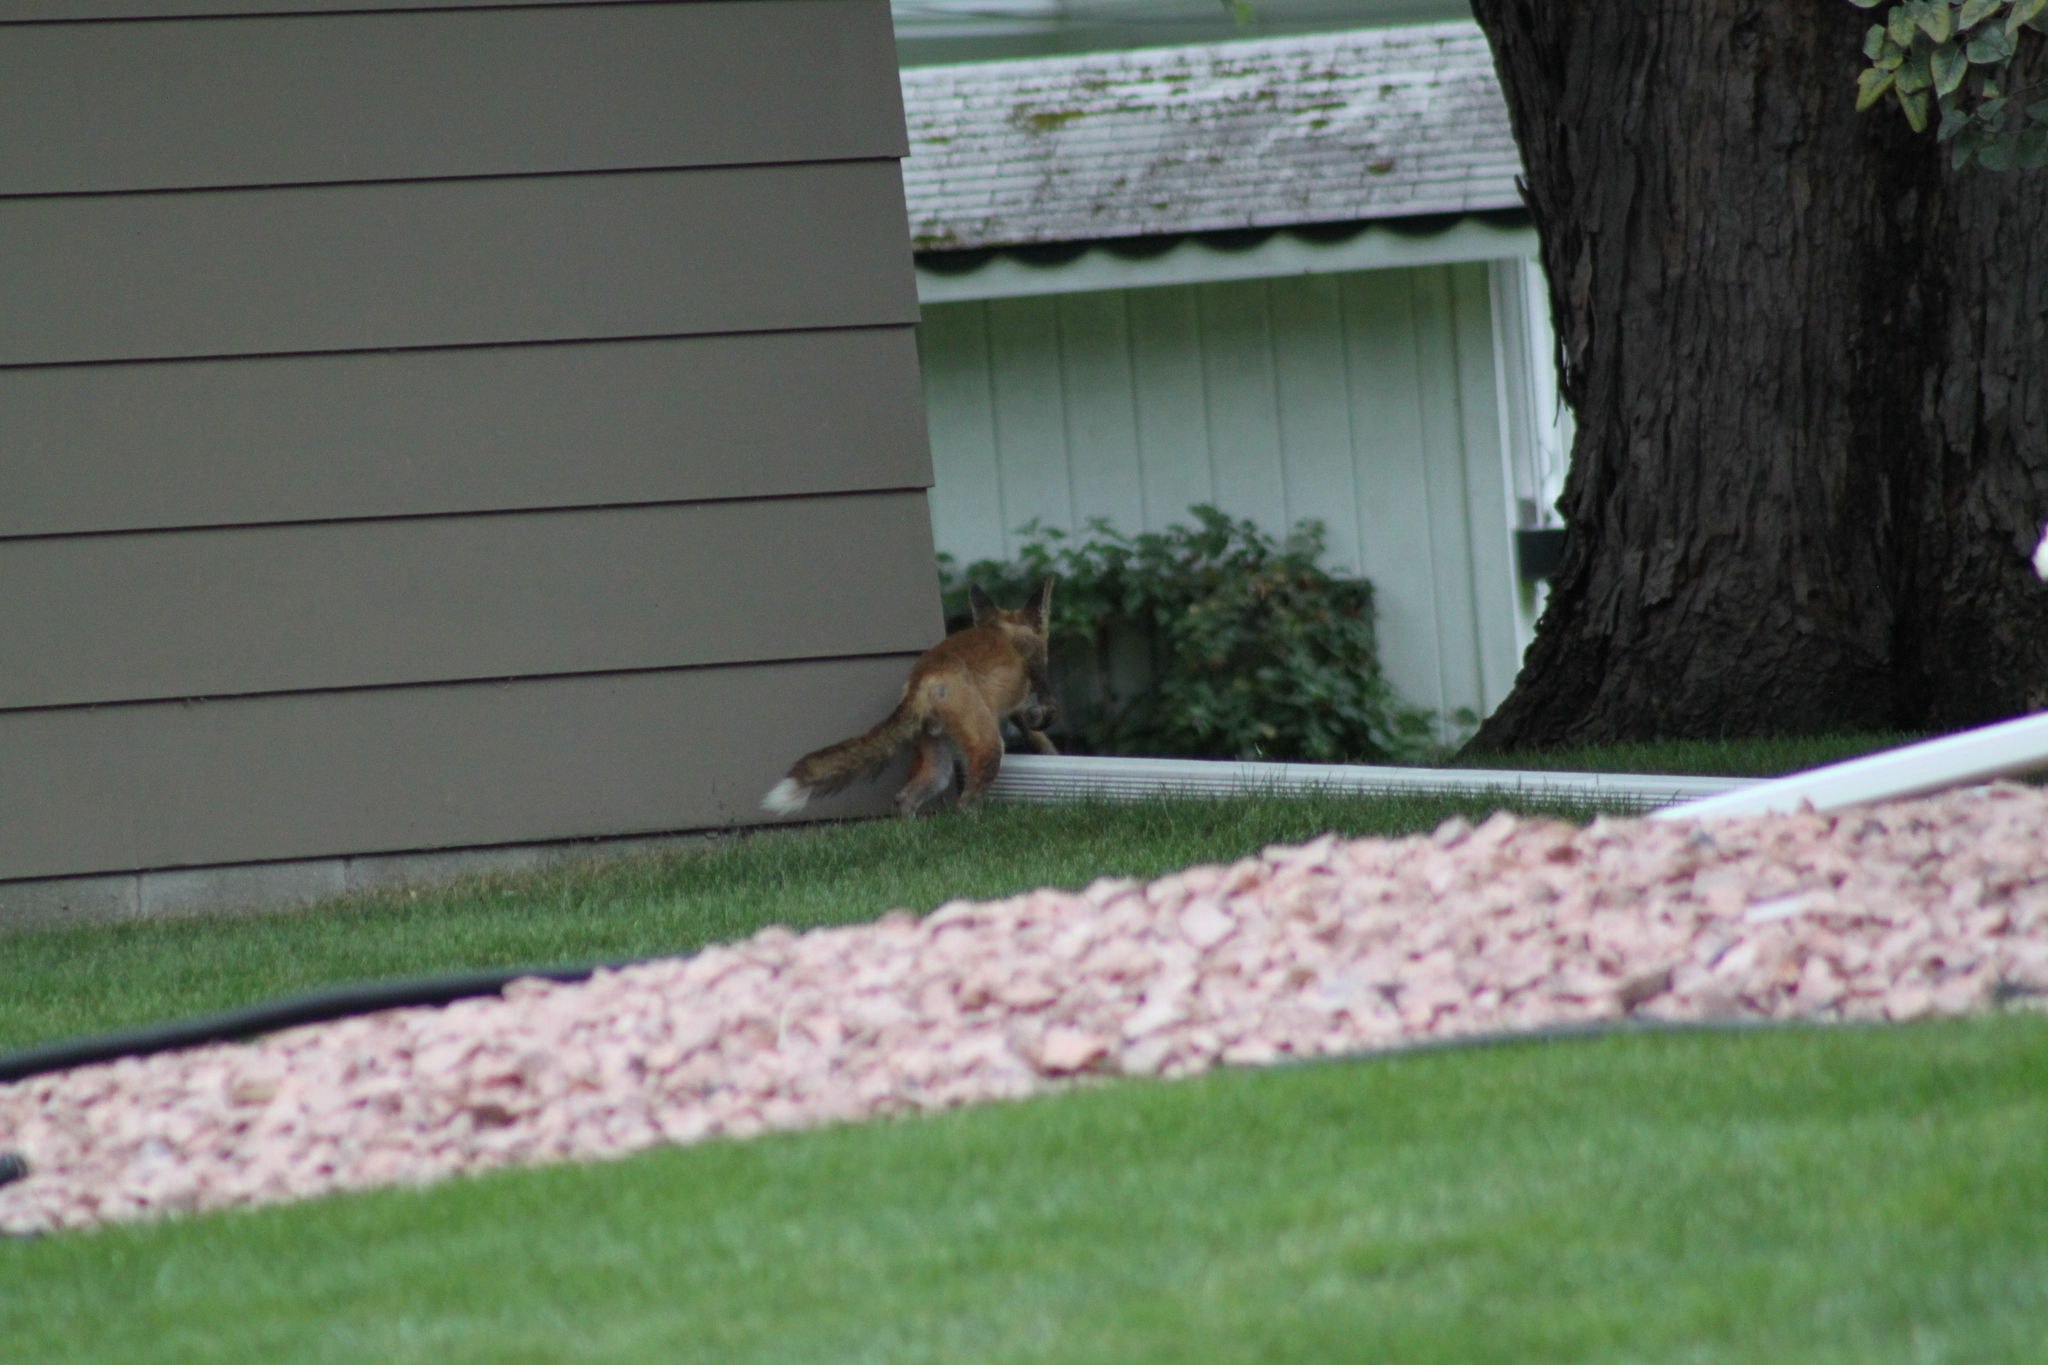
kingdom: Animalia
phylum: Chordata
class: Mammalia
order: Carnivora
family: Canidae
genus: Vulpes
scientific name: Vulpes vulpes
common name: Red fox
